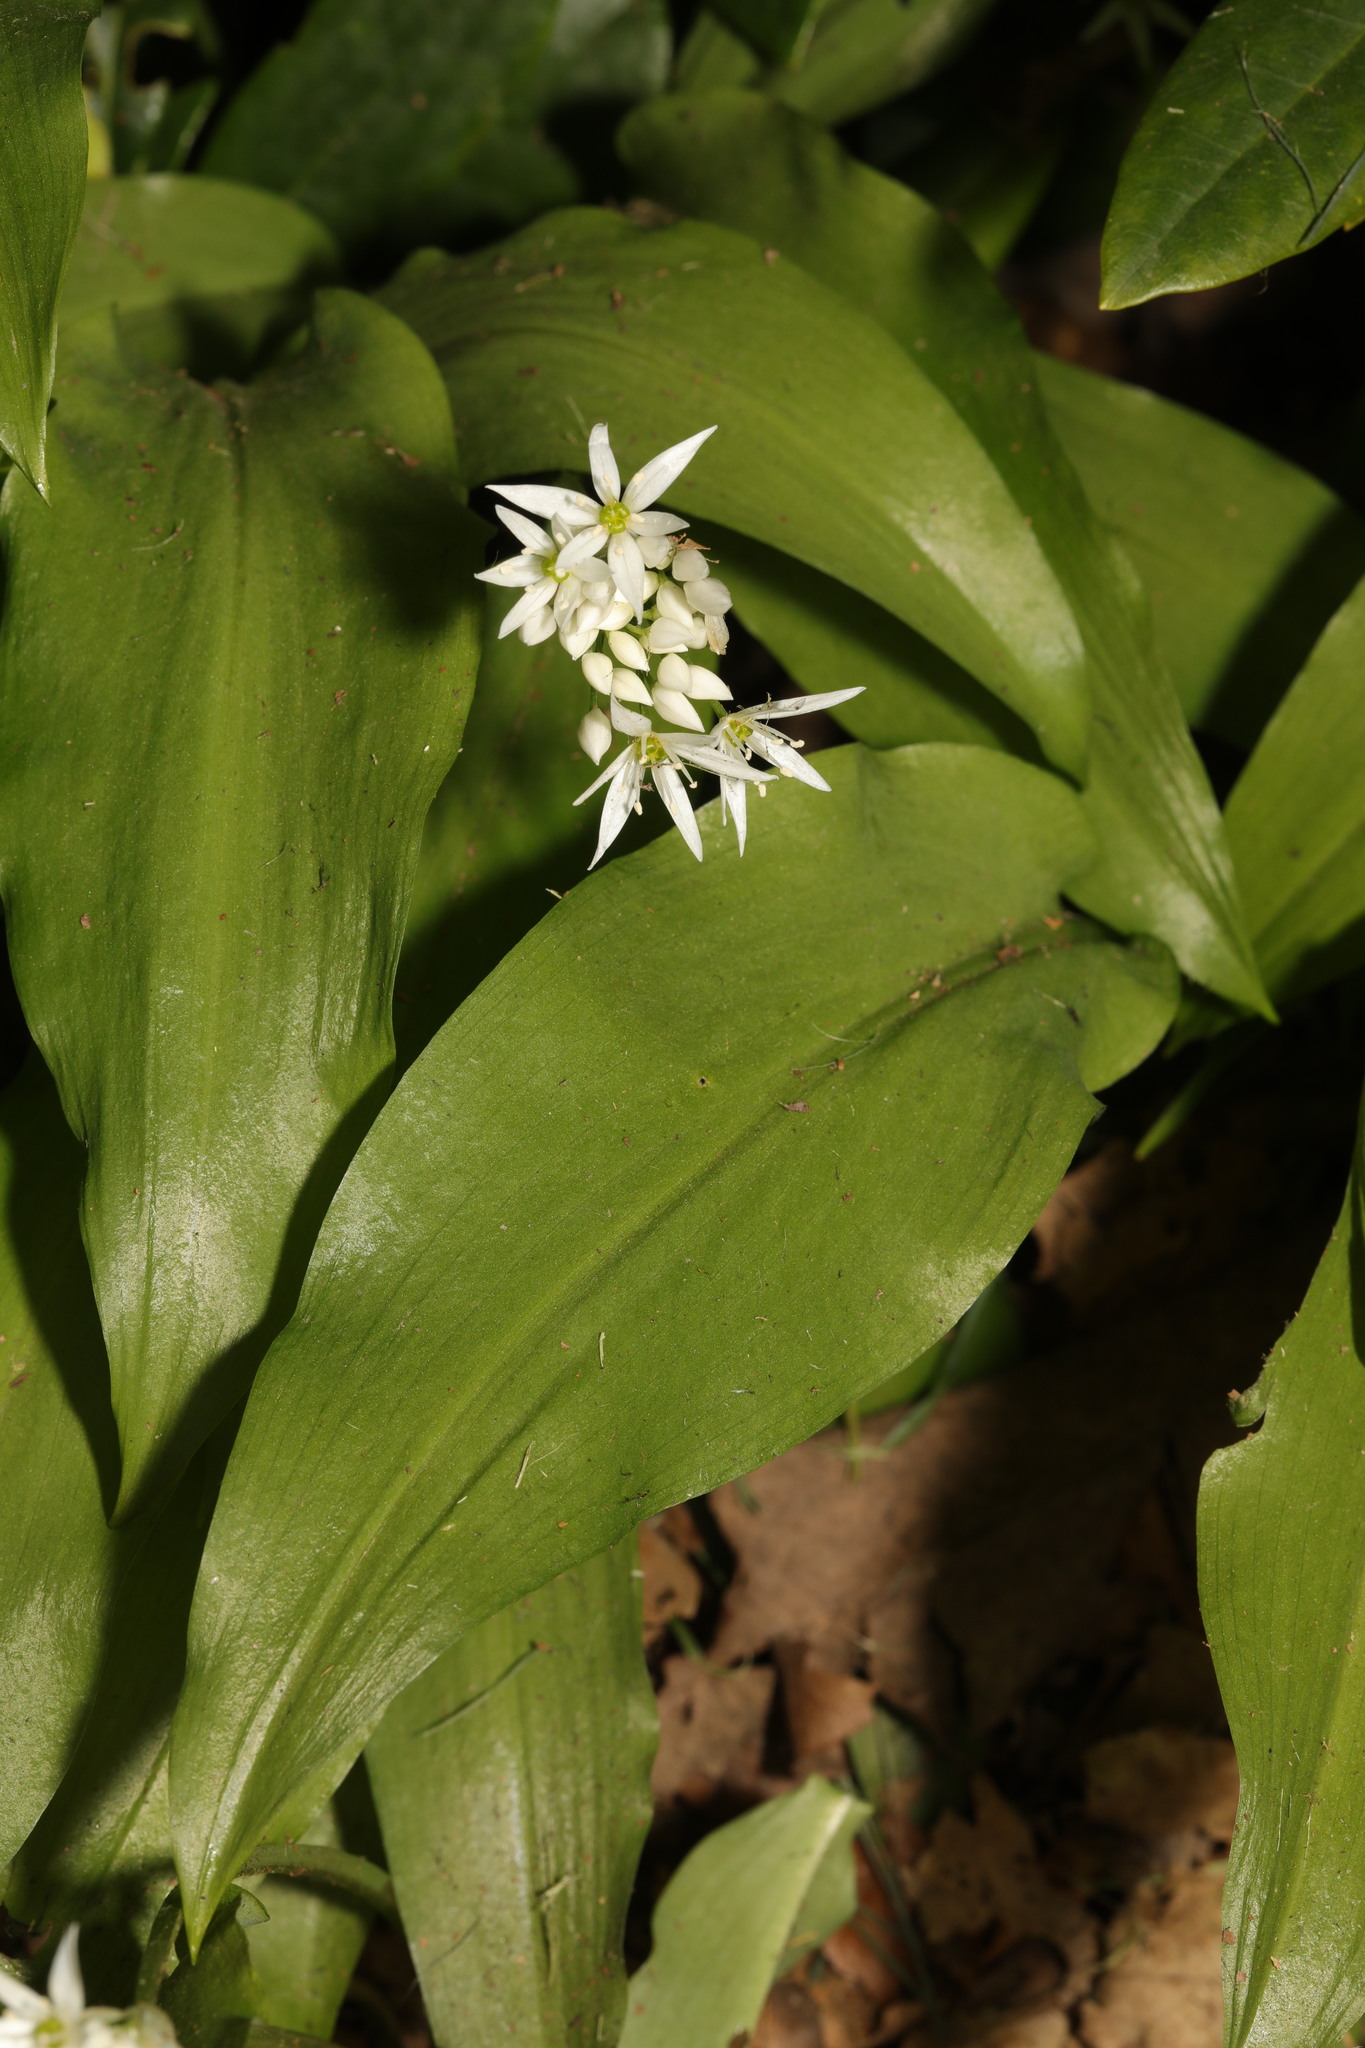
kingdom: Plantae
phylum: Tracheophyta
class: Liliopsida
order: Asparagales
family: Amaryllidaceae
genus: Allium
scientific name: Allium ursinum
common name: Ramsons
